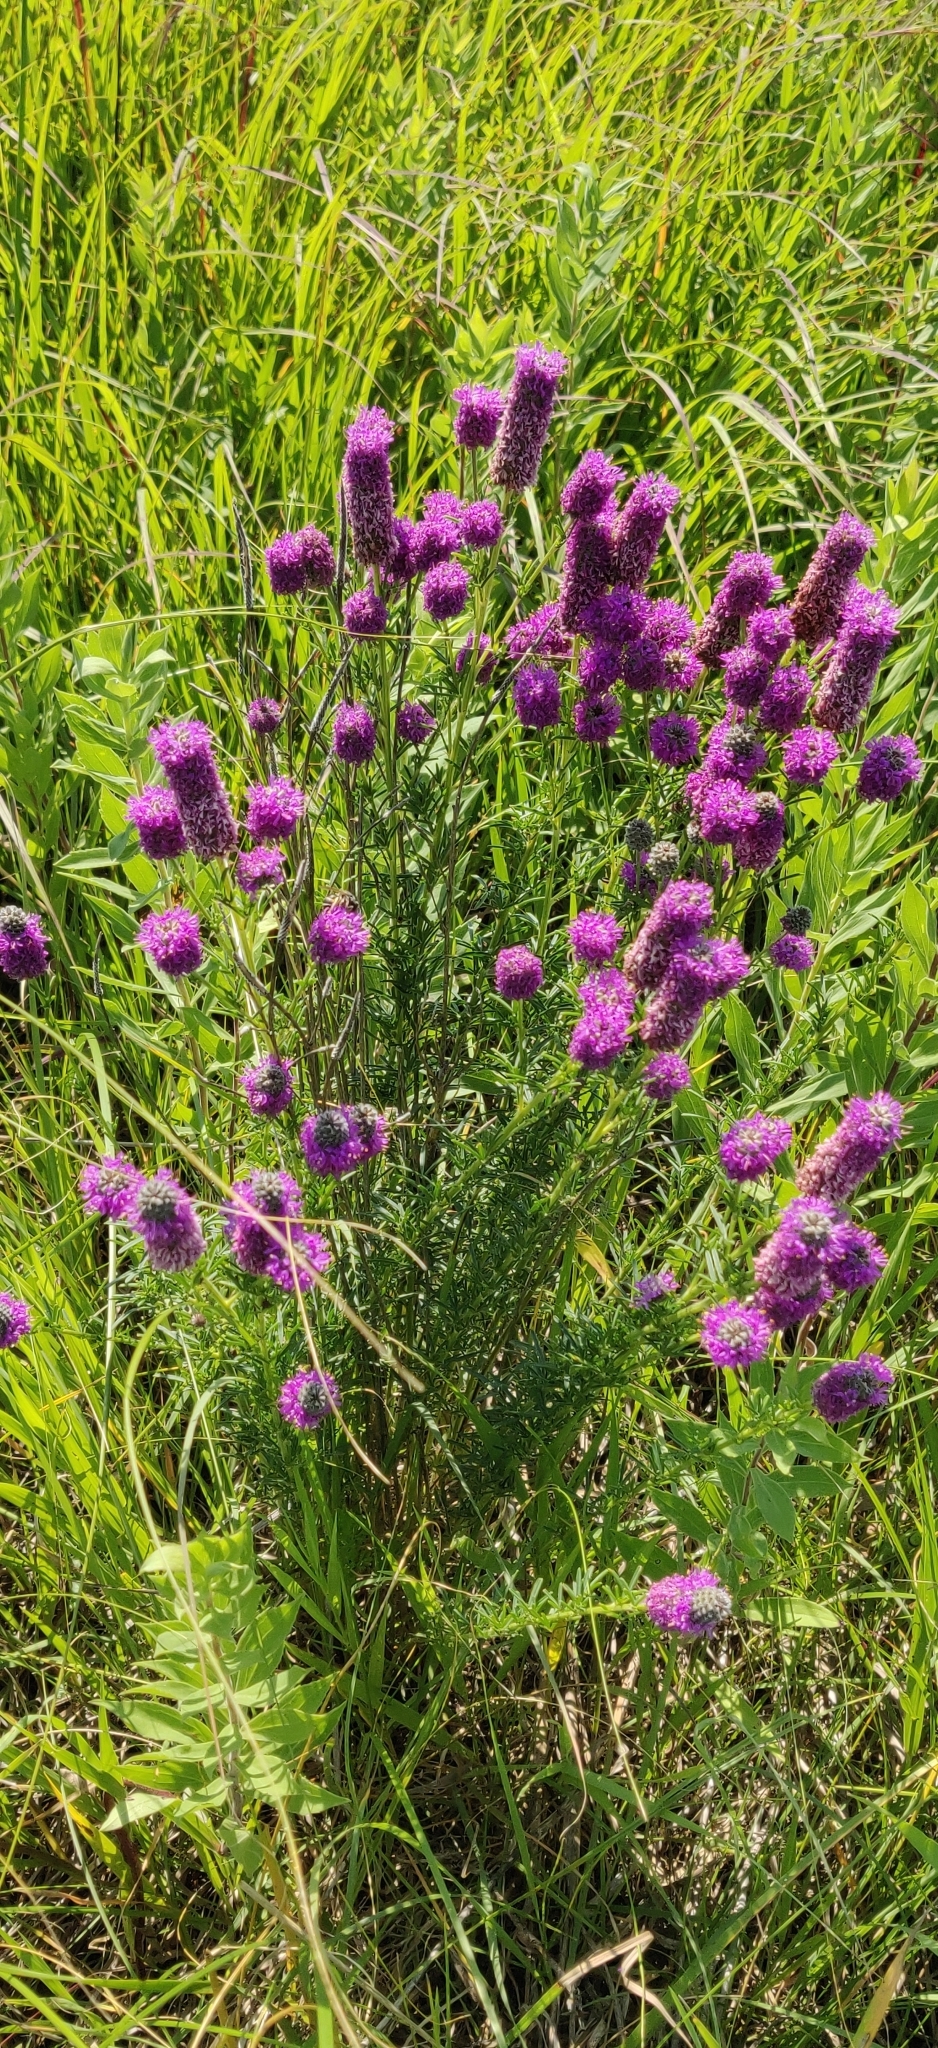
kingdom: Plantae
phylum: Tracheophyta
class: Magnoliopsida
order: Fabales
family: Fabaceae
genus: Dalea
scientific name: Dalea purpurea
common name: Purple prairie-clover
